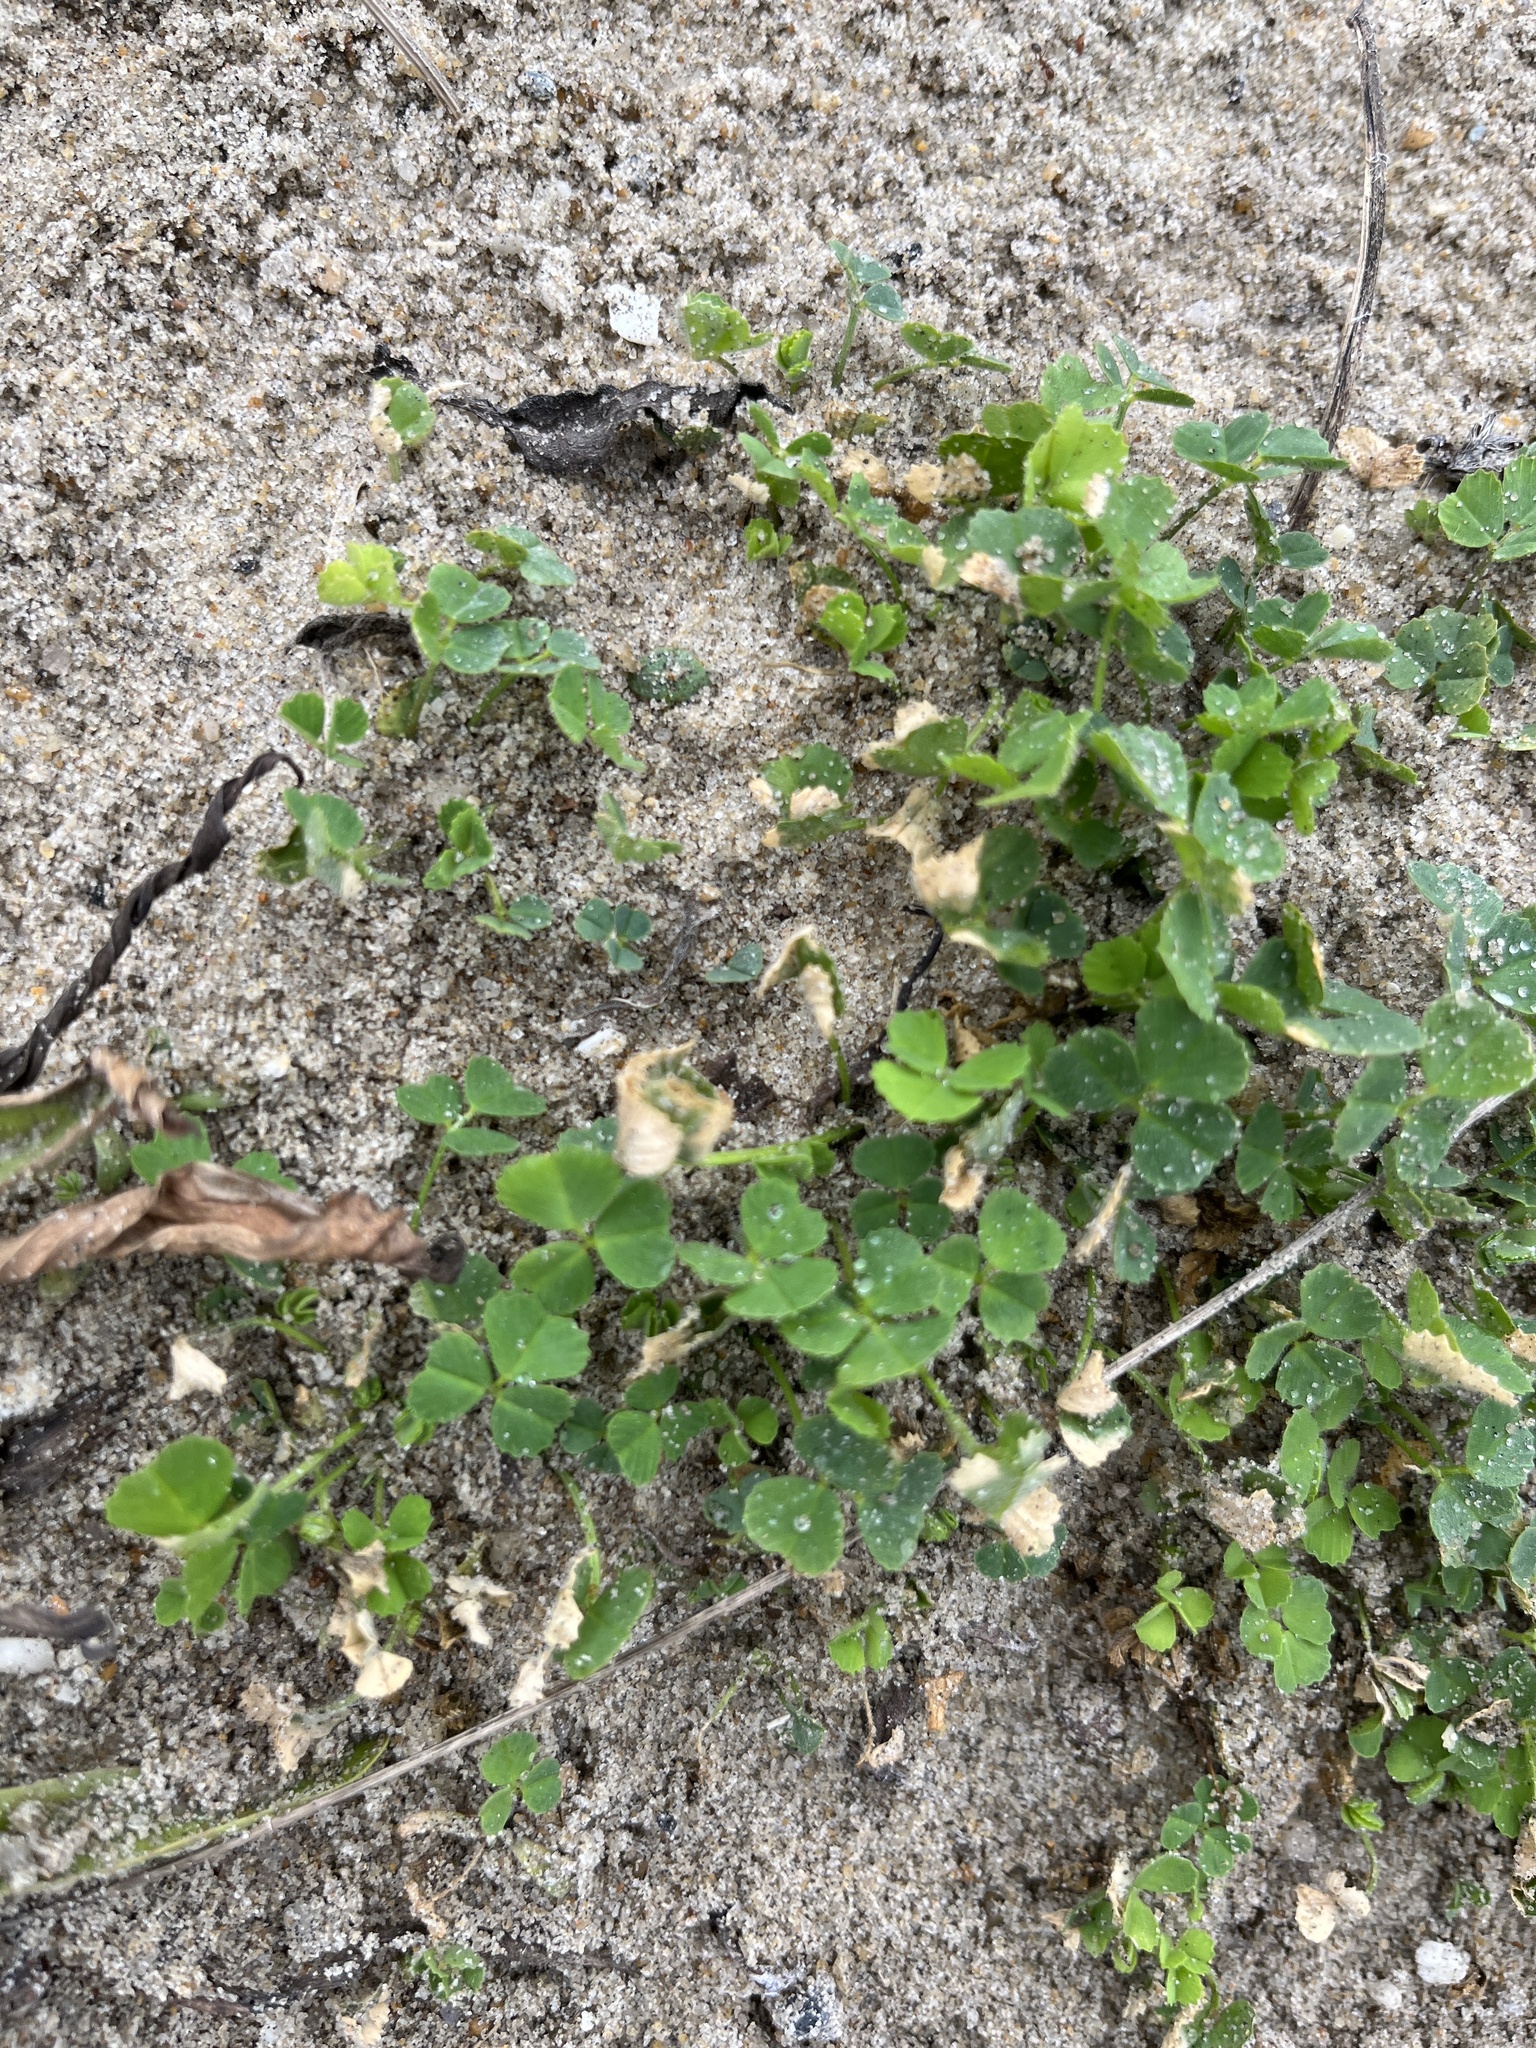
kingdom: Plantae
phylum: Tracheophyta
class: Magnoliopsida
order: Fabales
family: Fabaceae
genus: Medicago
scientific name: Medicago littoralis
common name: Shore medick
